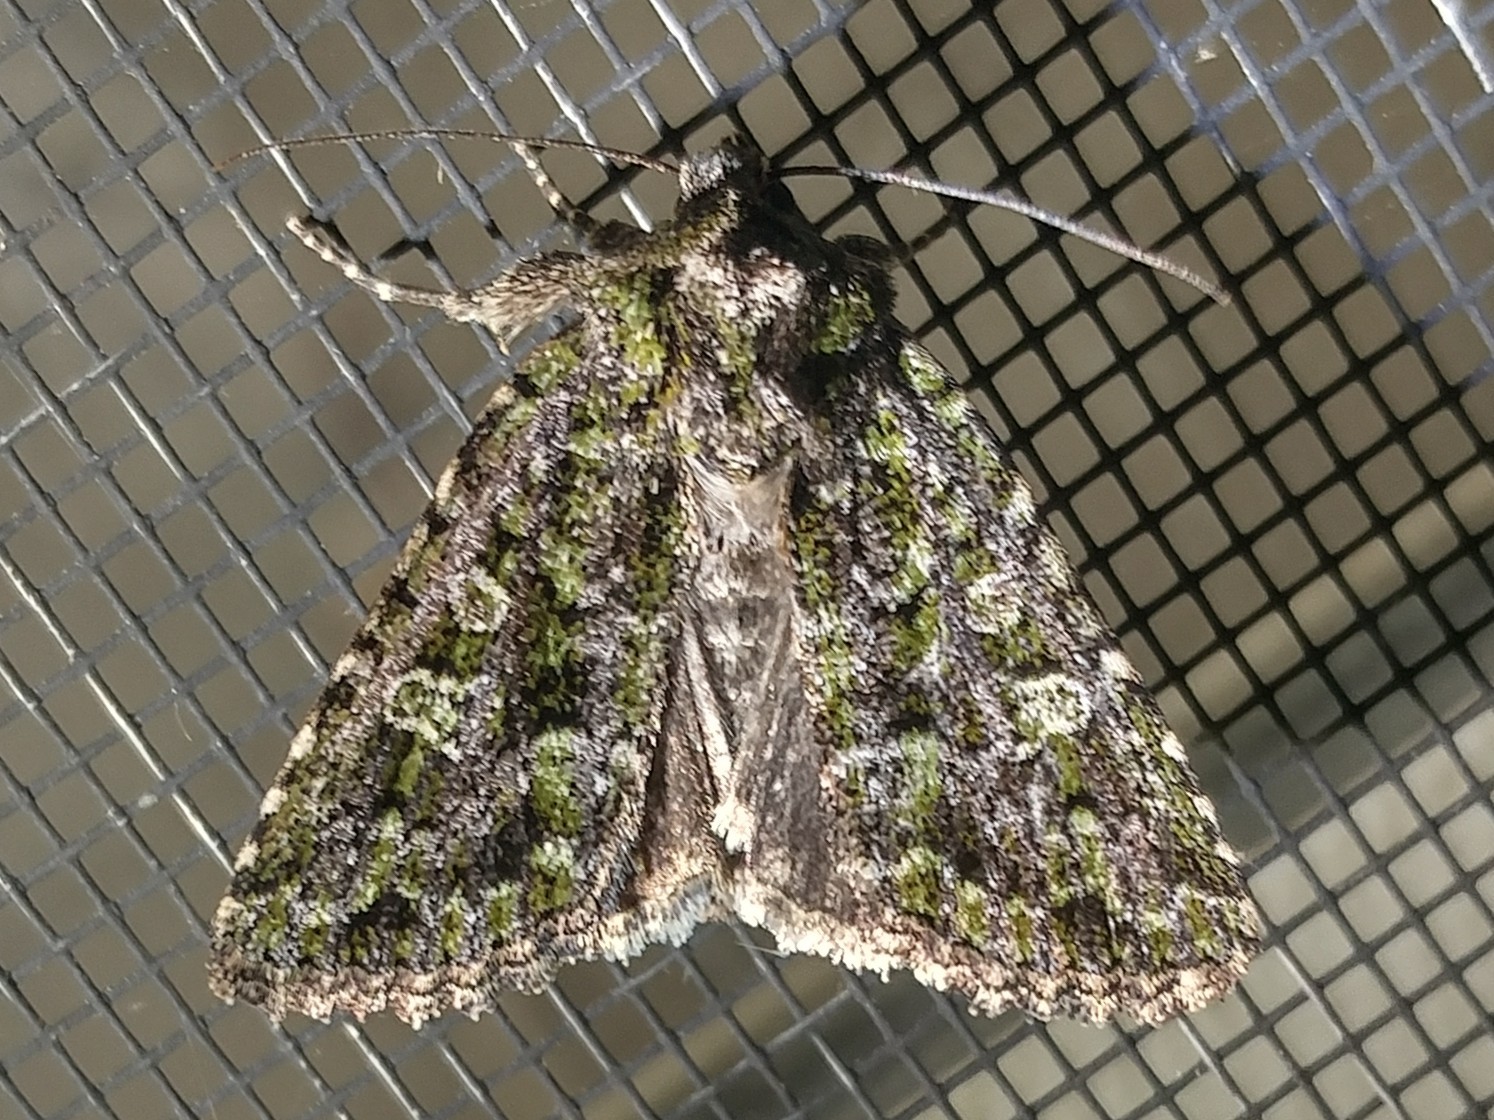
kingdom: Animalia
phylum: Arthropoda
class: Insecta
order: Lepidoptera
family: Noctuidae
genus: Aseptis
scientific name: Aseptis marina
